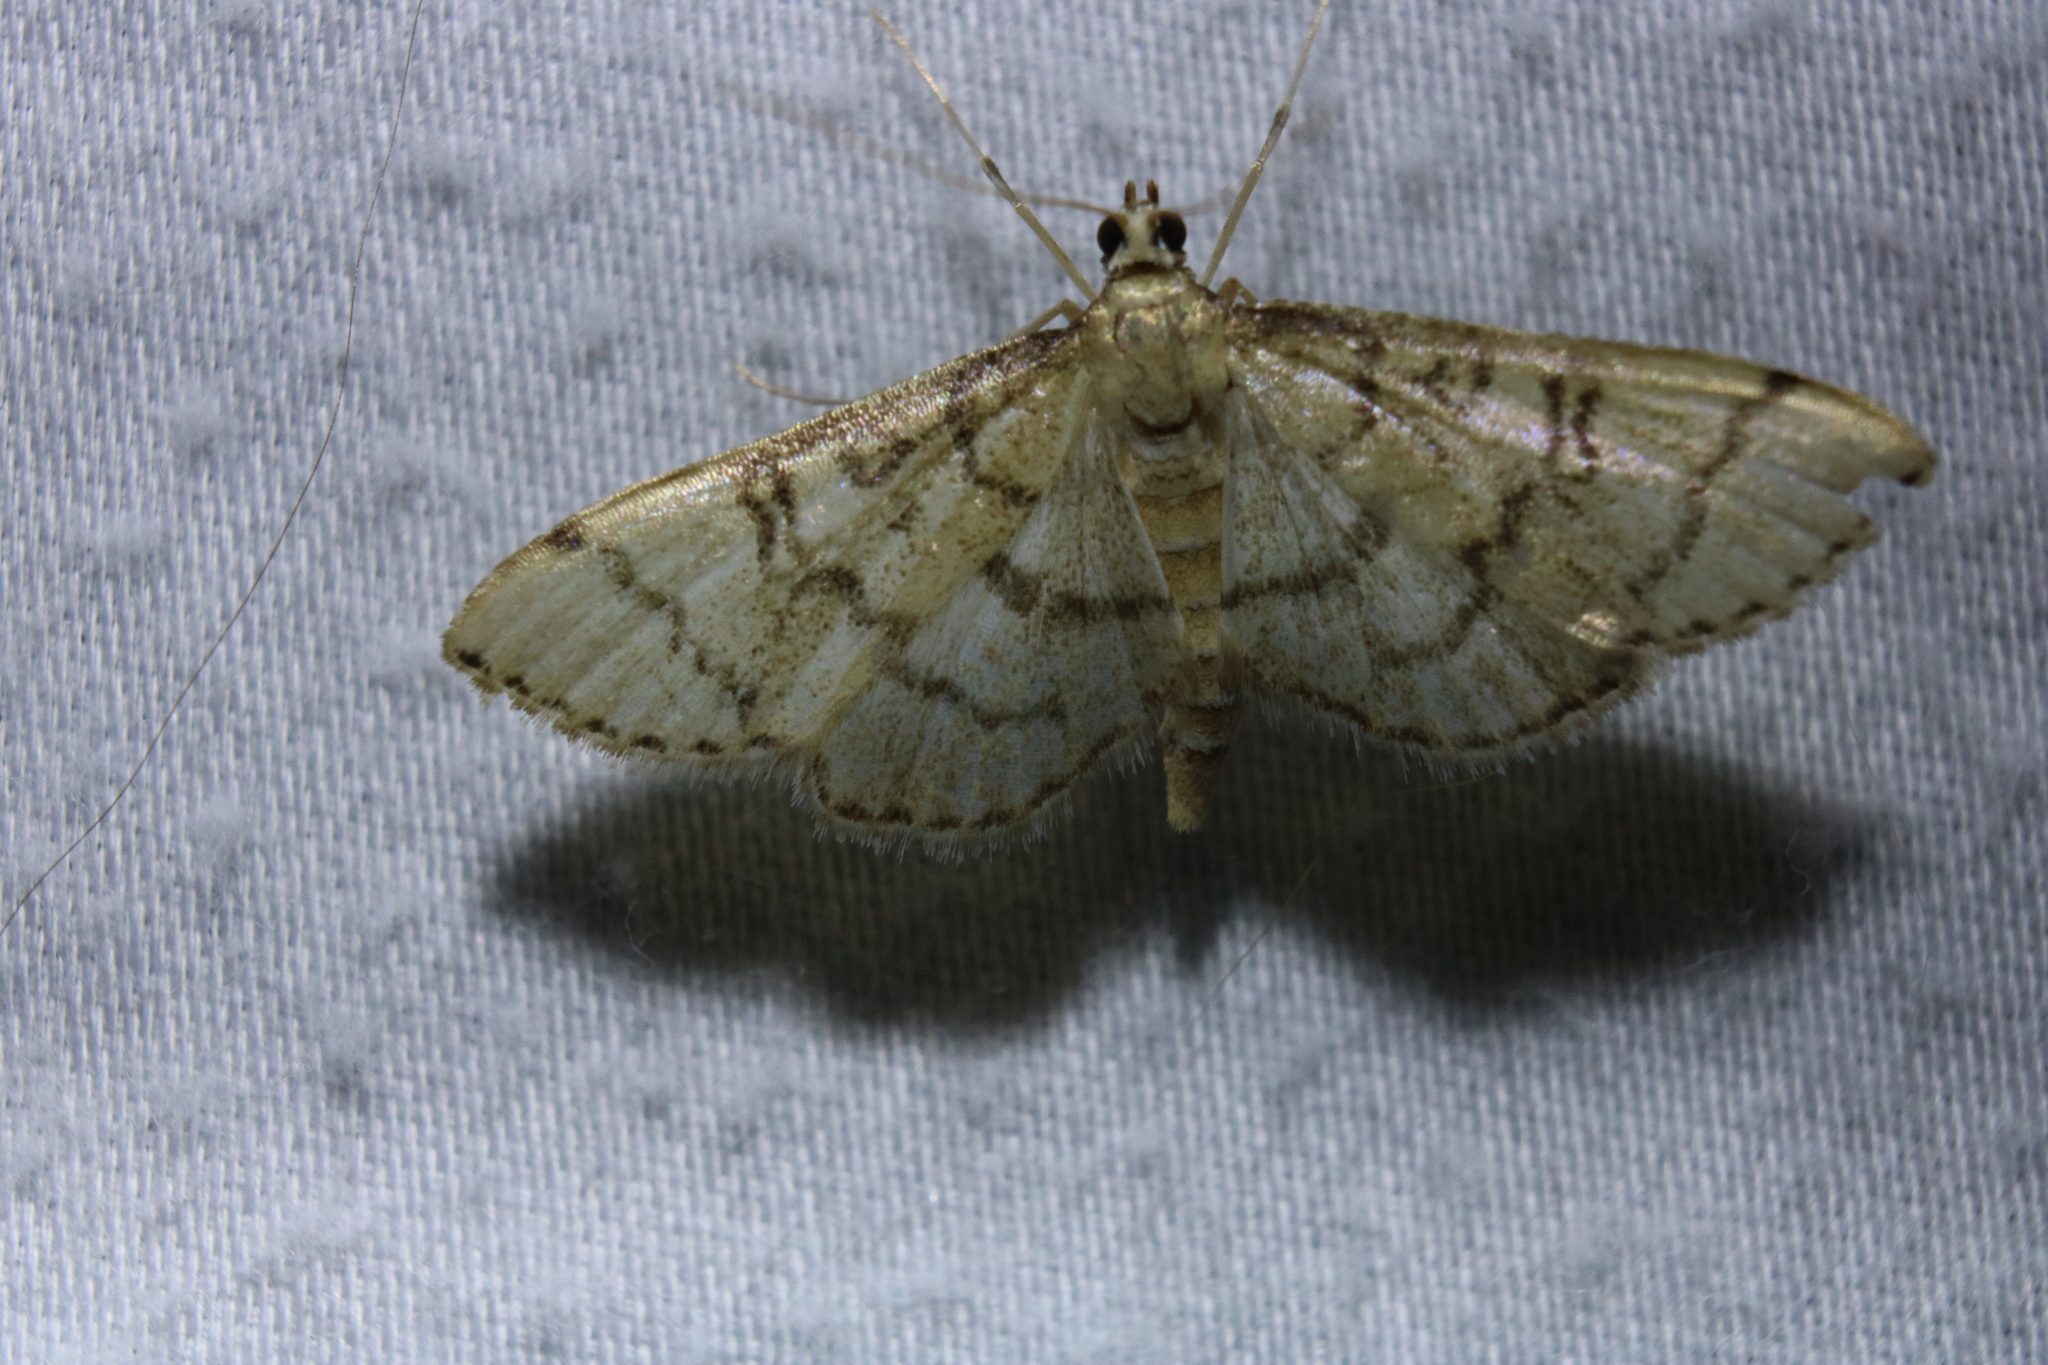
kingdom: Animalia
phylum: Arthropoda
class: Insecta
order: Lepidoptera
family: Crambidae
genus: Lamprosema
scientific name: Lamprosema Blepharomastix ranalis
